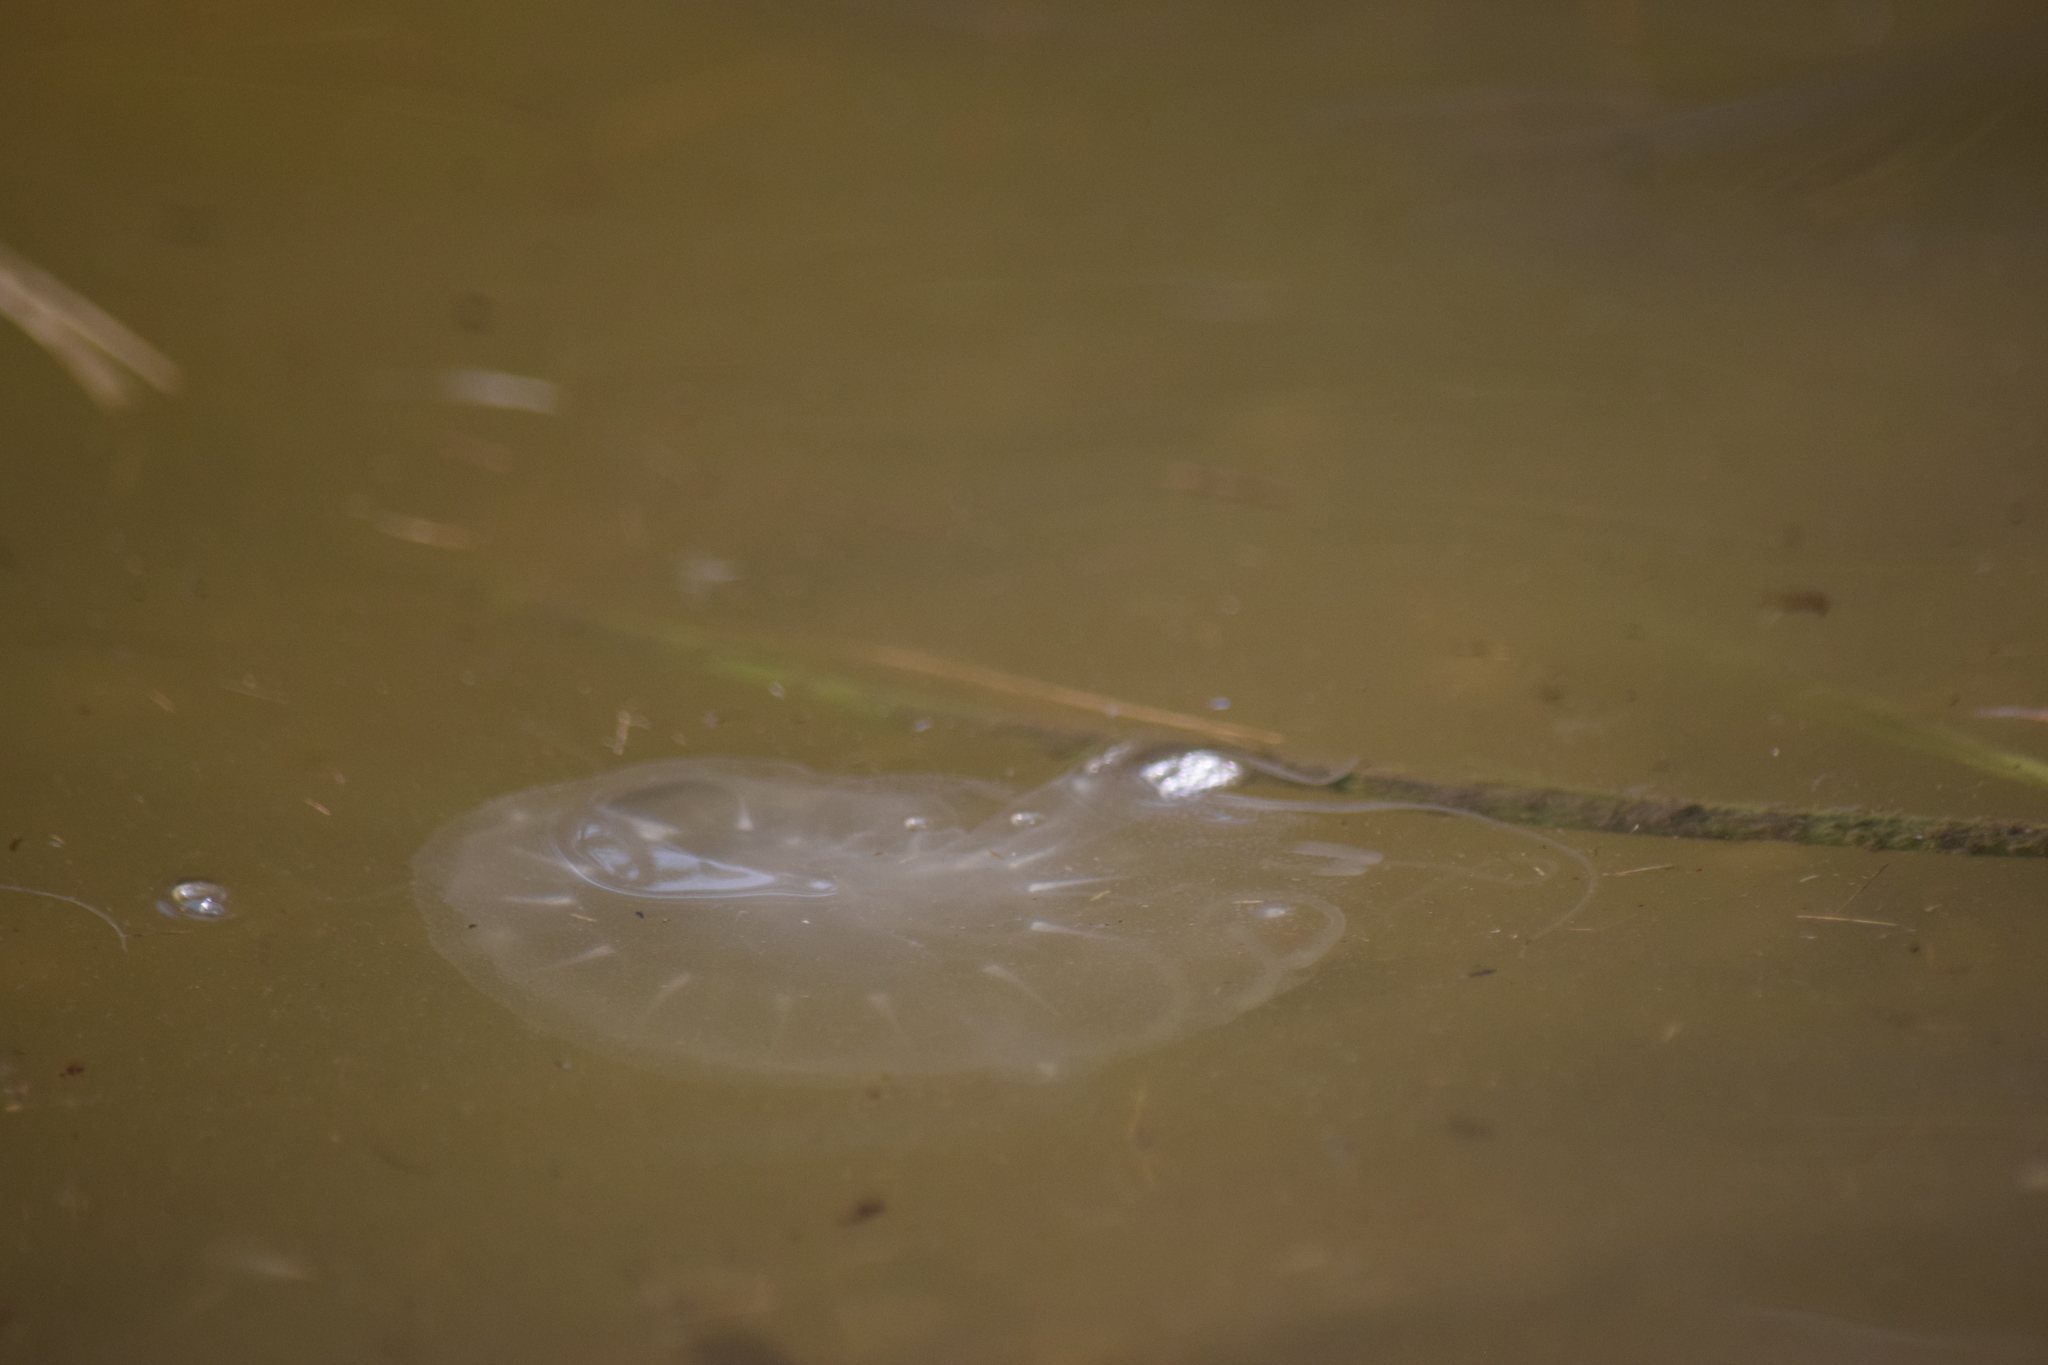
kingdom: Animalia
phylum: Cnidaria
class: Scyphozoa
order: Semaeostomeae
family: Pelagiidae
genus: Chrysaora
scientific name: Chrysaora chesapeakei
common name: Bay nettle
